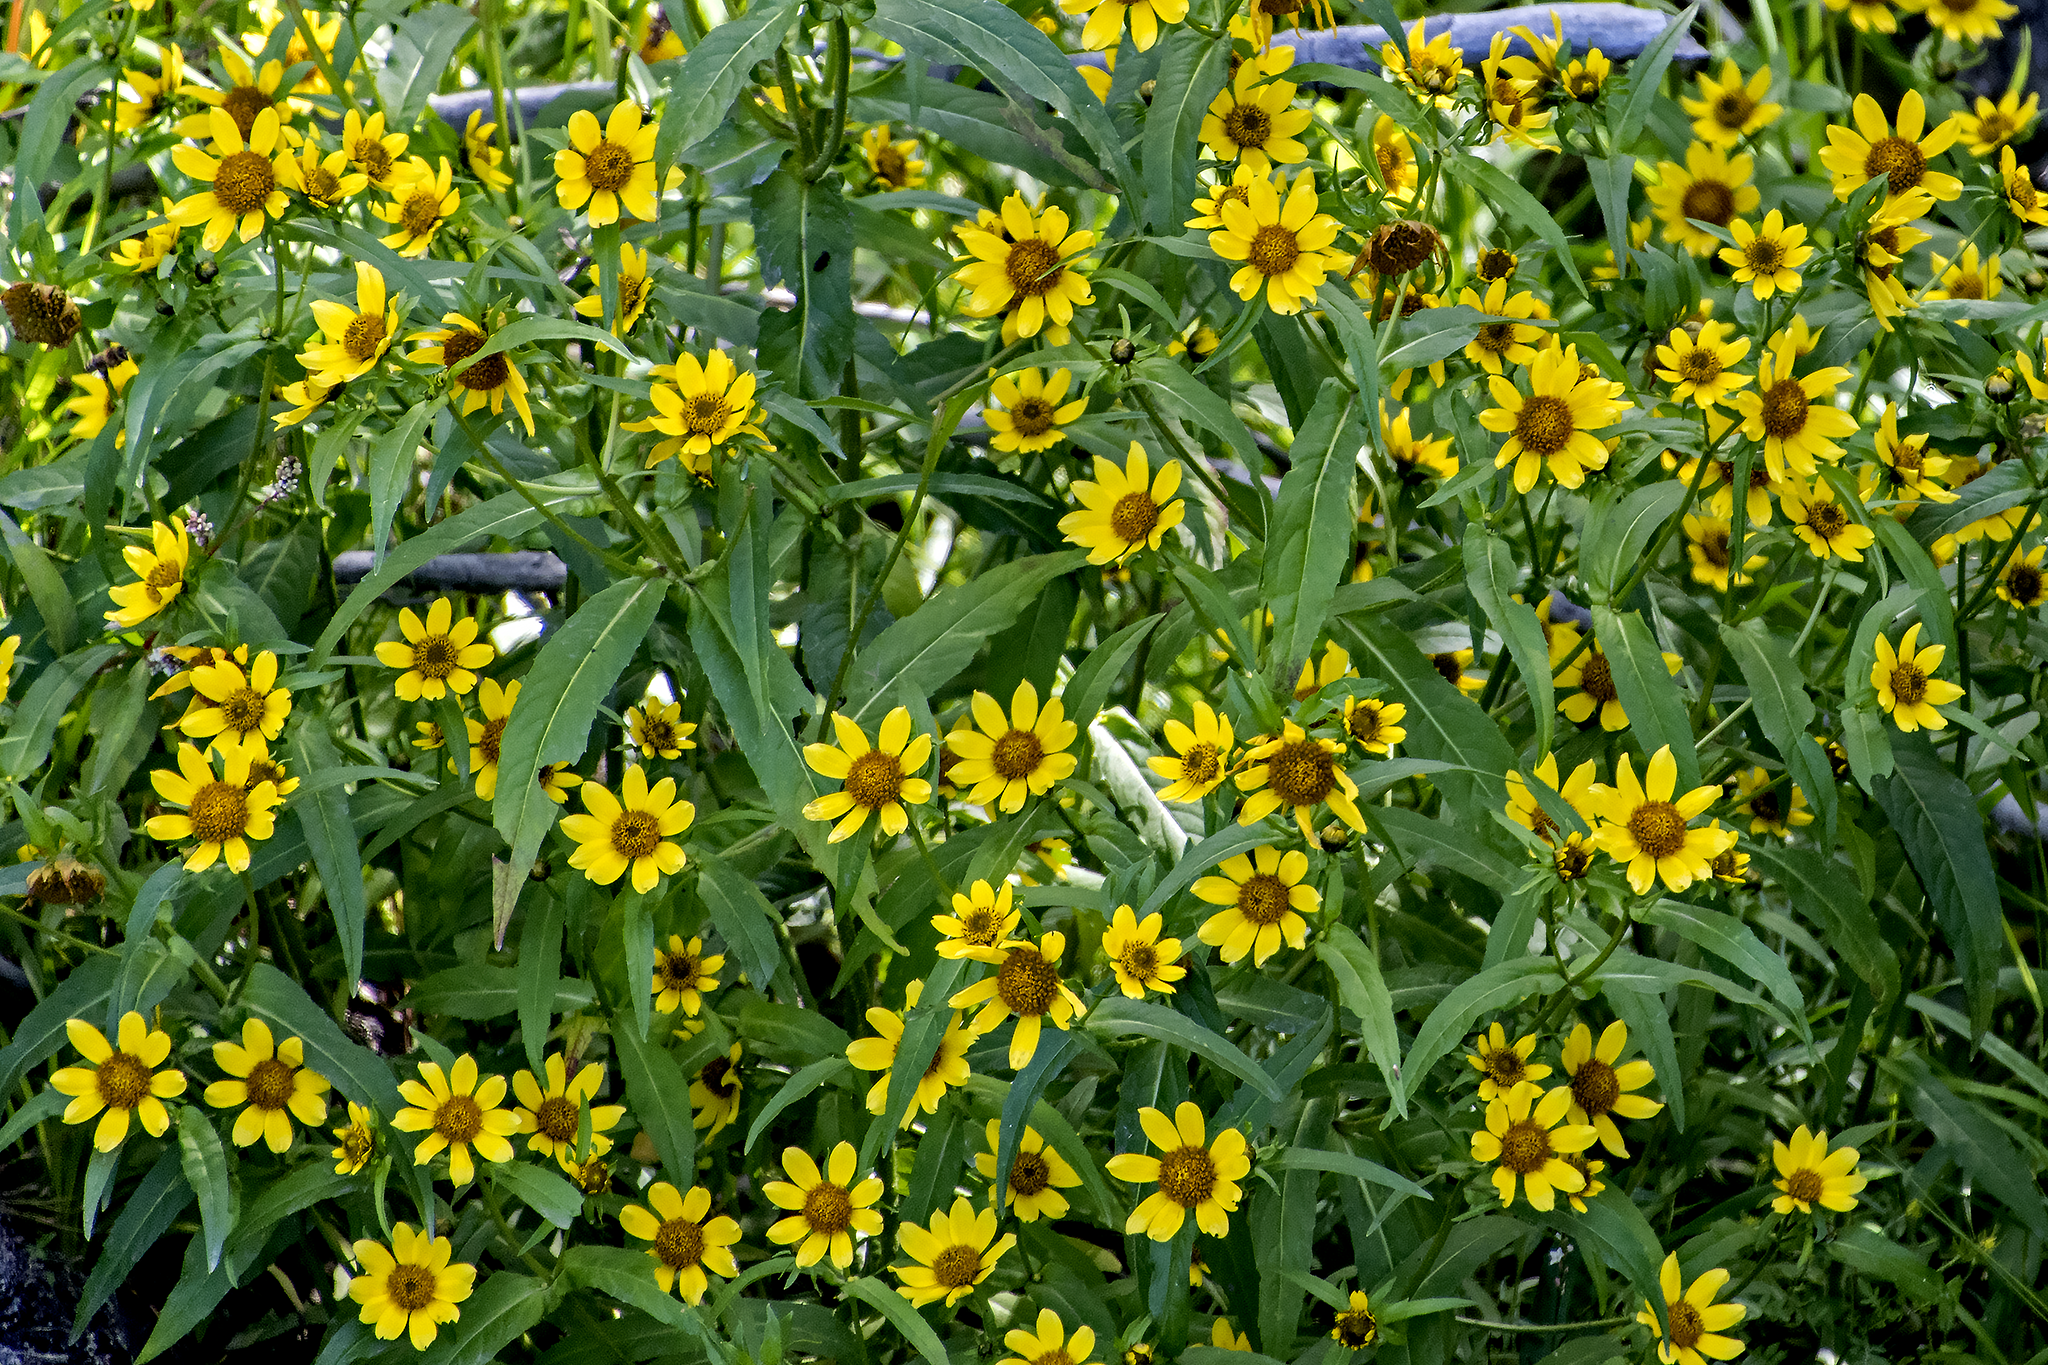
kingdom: Plantae
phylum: Tracheophyta
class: Magnoliopsida
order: Asterales
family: Asteraceae
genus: Bidens
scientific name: Bidens cernua
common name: Nodding bur-marigold
